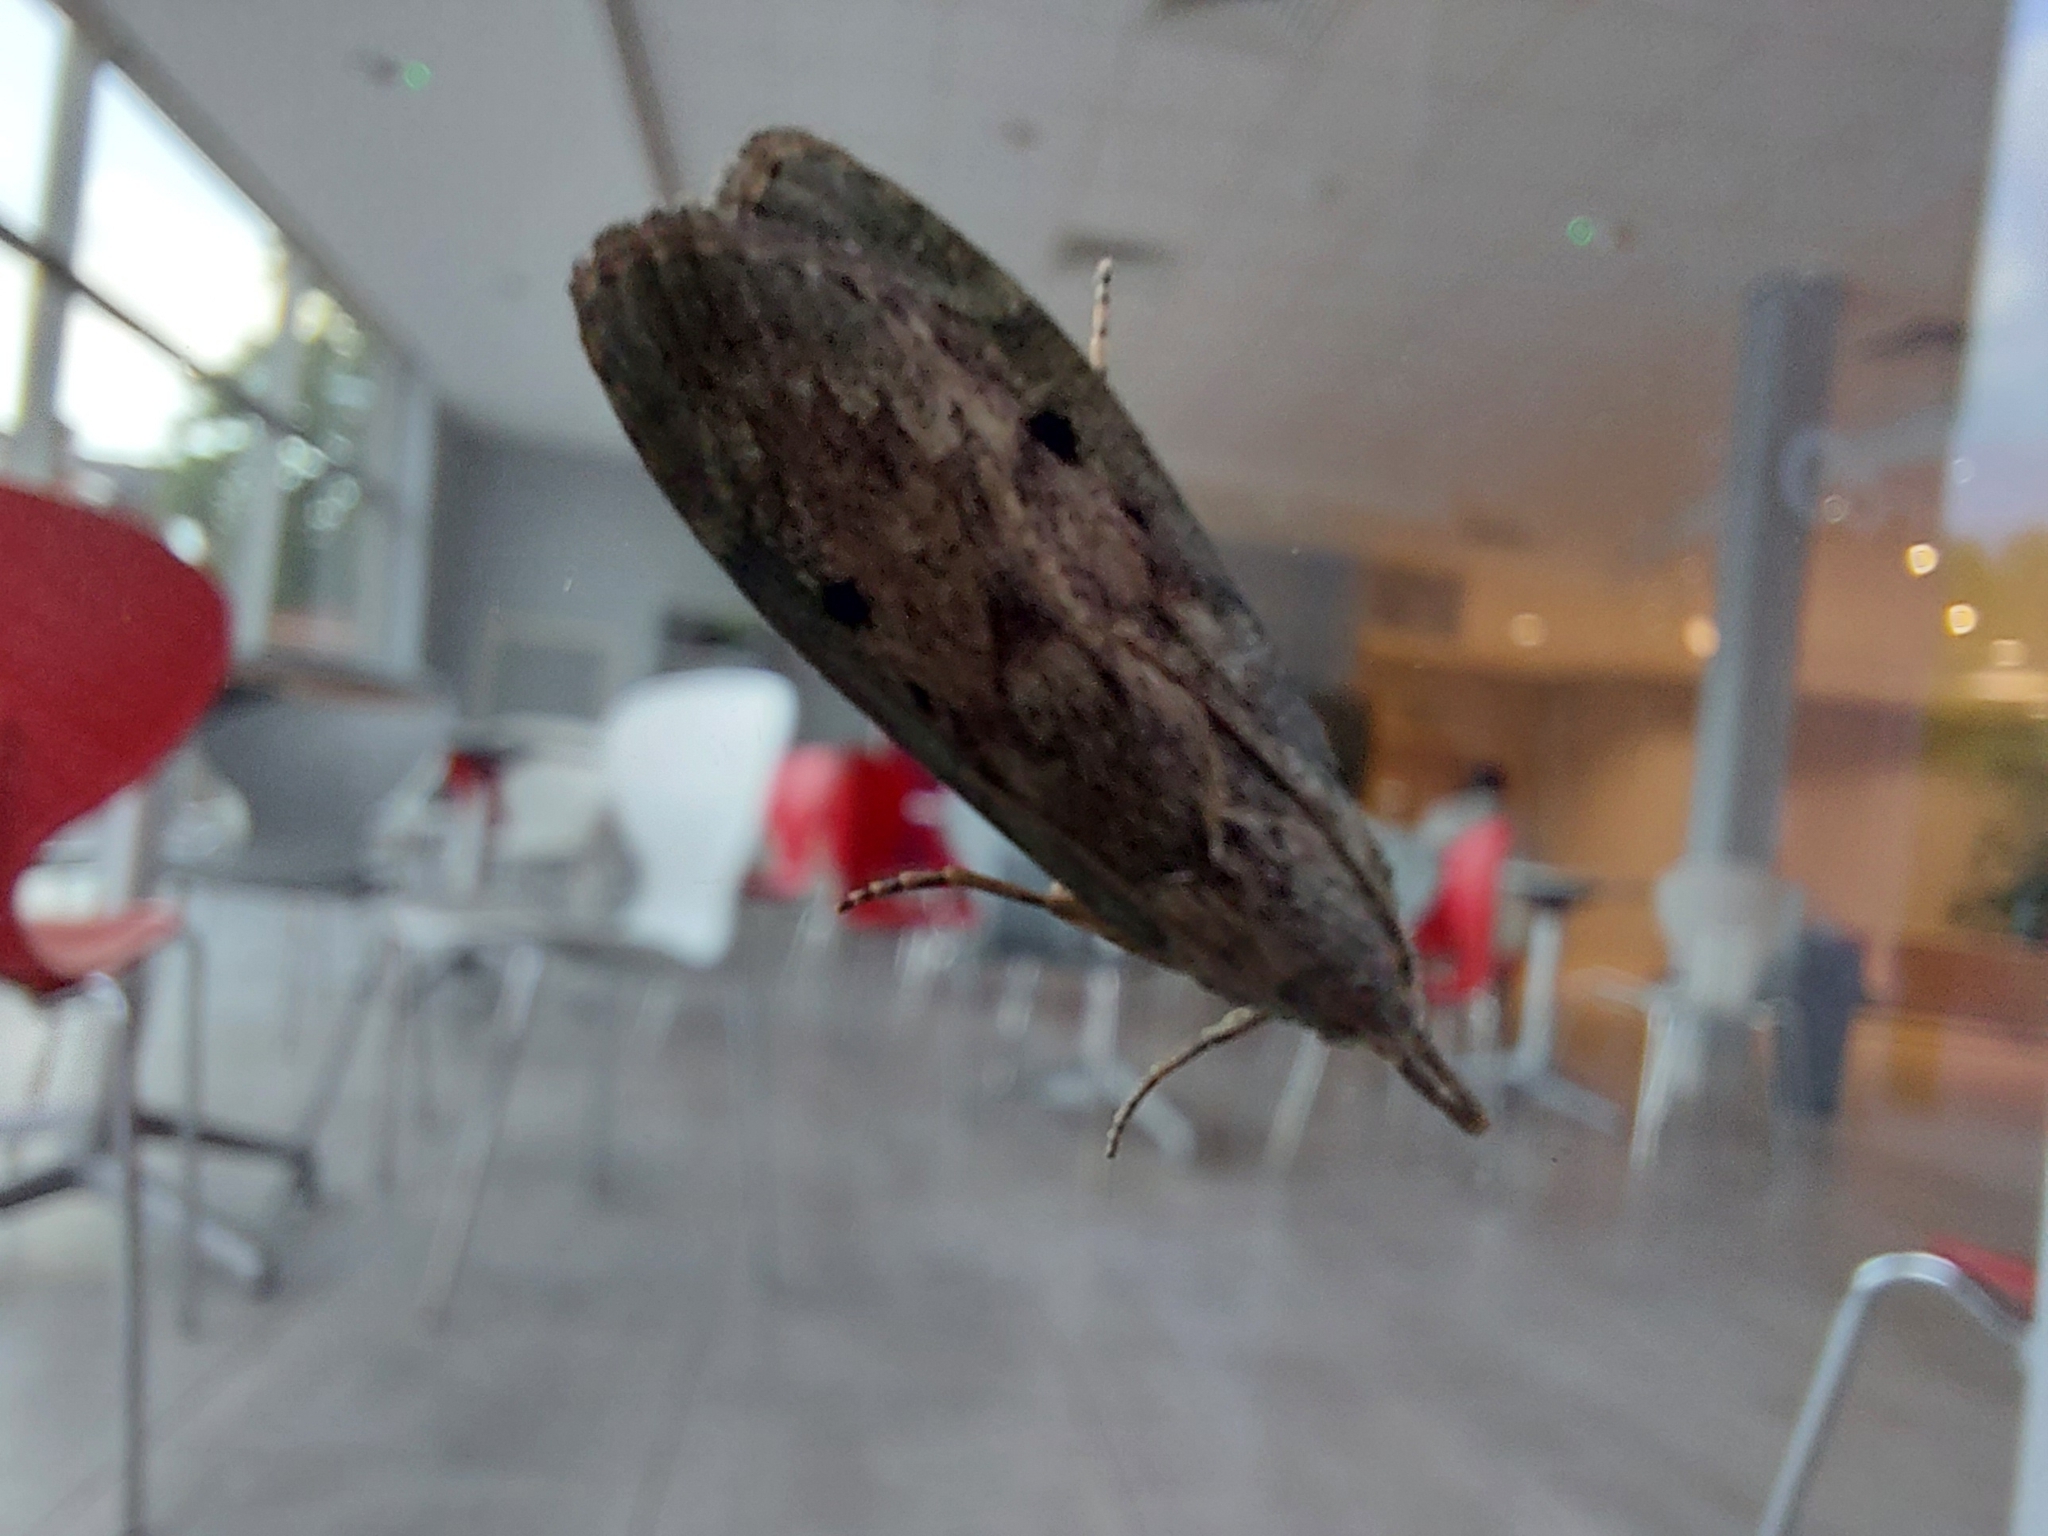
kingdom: Animalia
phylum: Arthropoda
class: Insecta
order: Lepidoptera
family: Pyralidae
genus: Aphomia
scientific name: Aphomia sociella
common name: Bee moth
